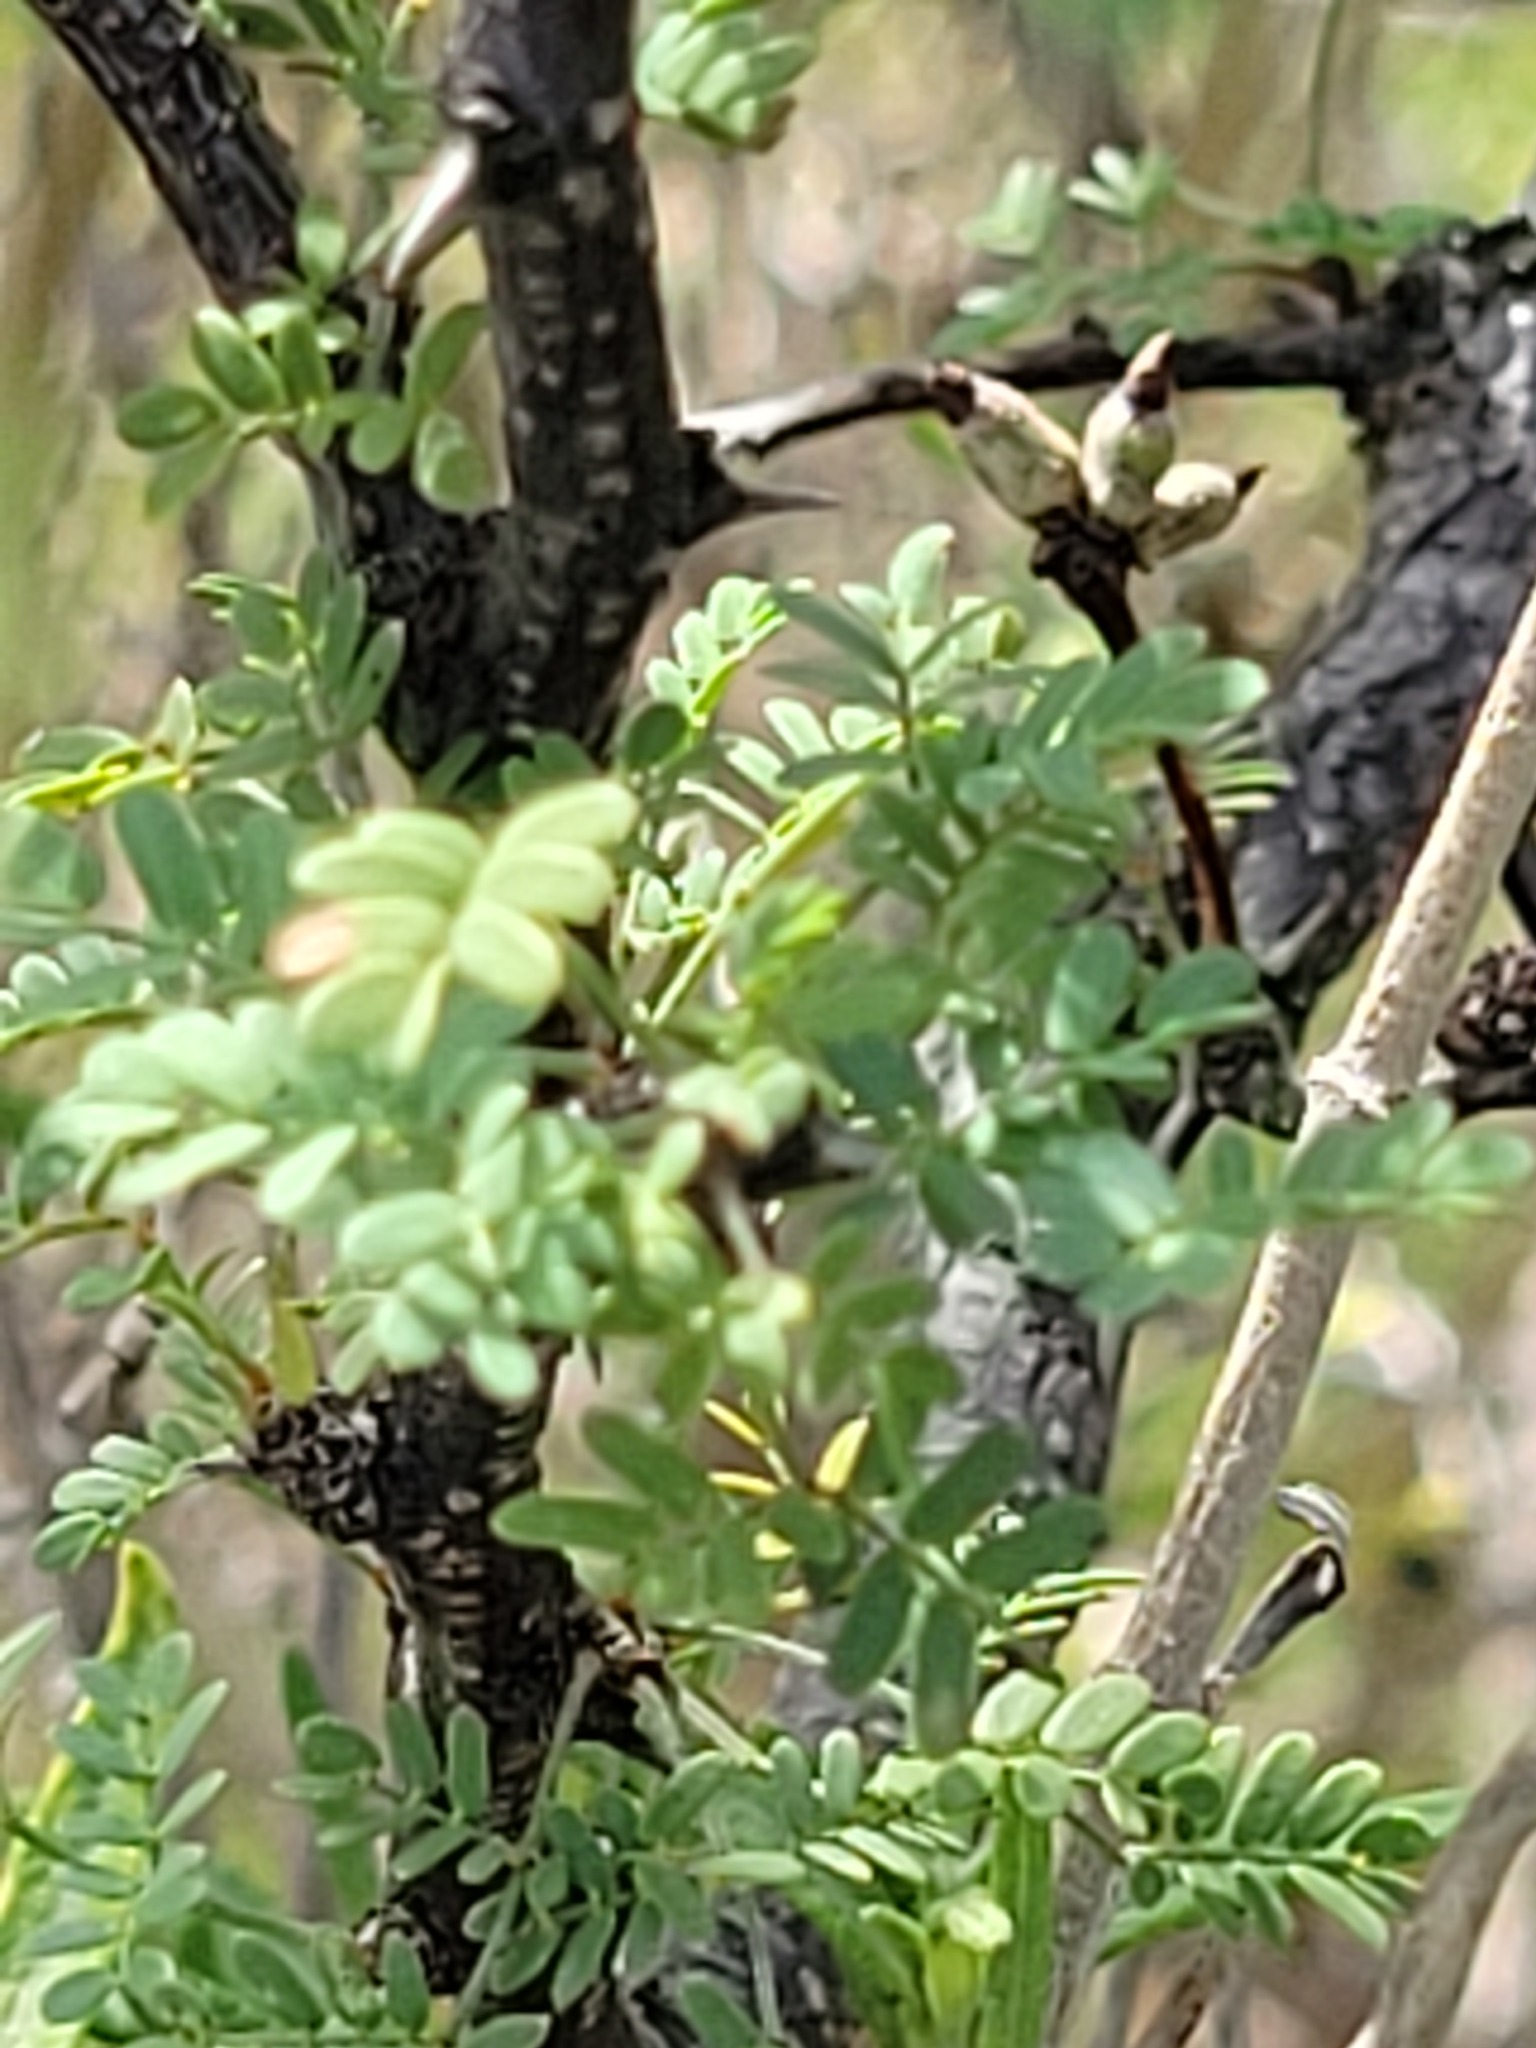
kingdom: Plantae
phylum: Tracheophyta
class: Magnoliopsida
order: Fabales
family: Fabaceae
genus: Mimosa
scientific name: Mimosa texana
